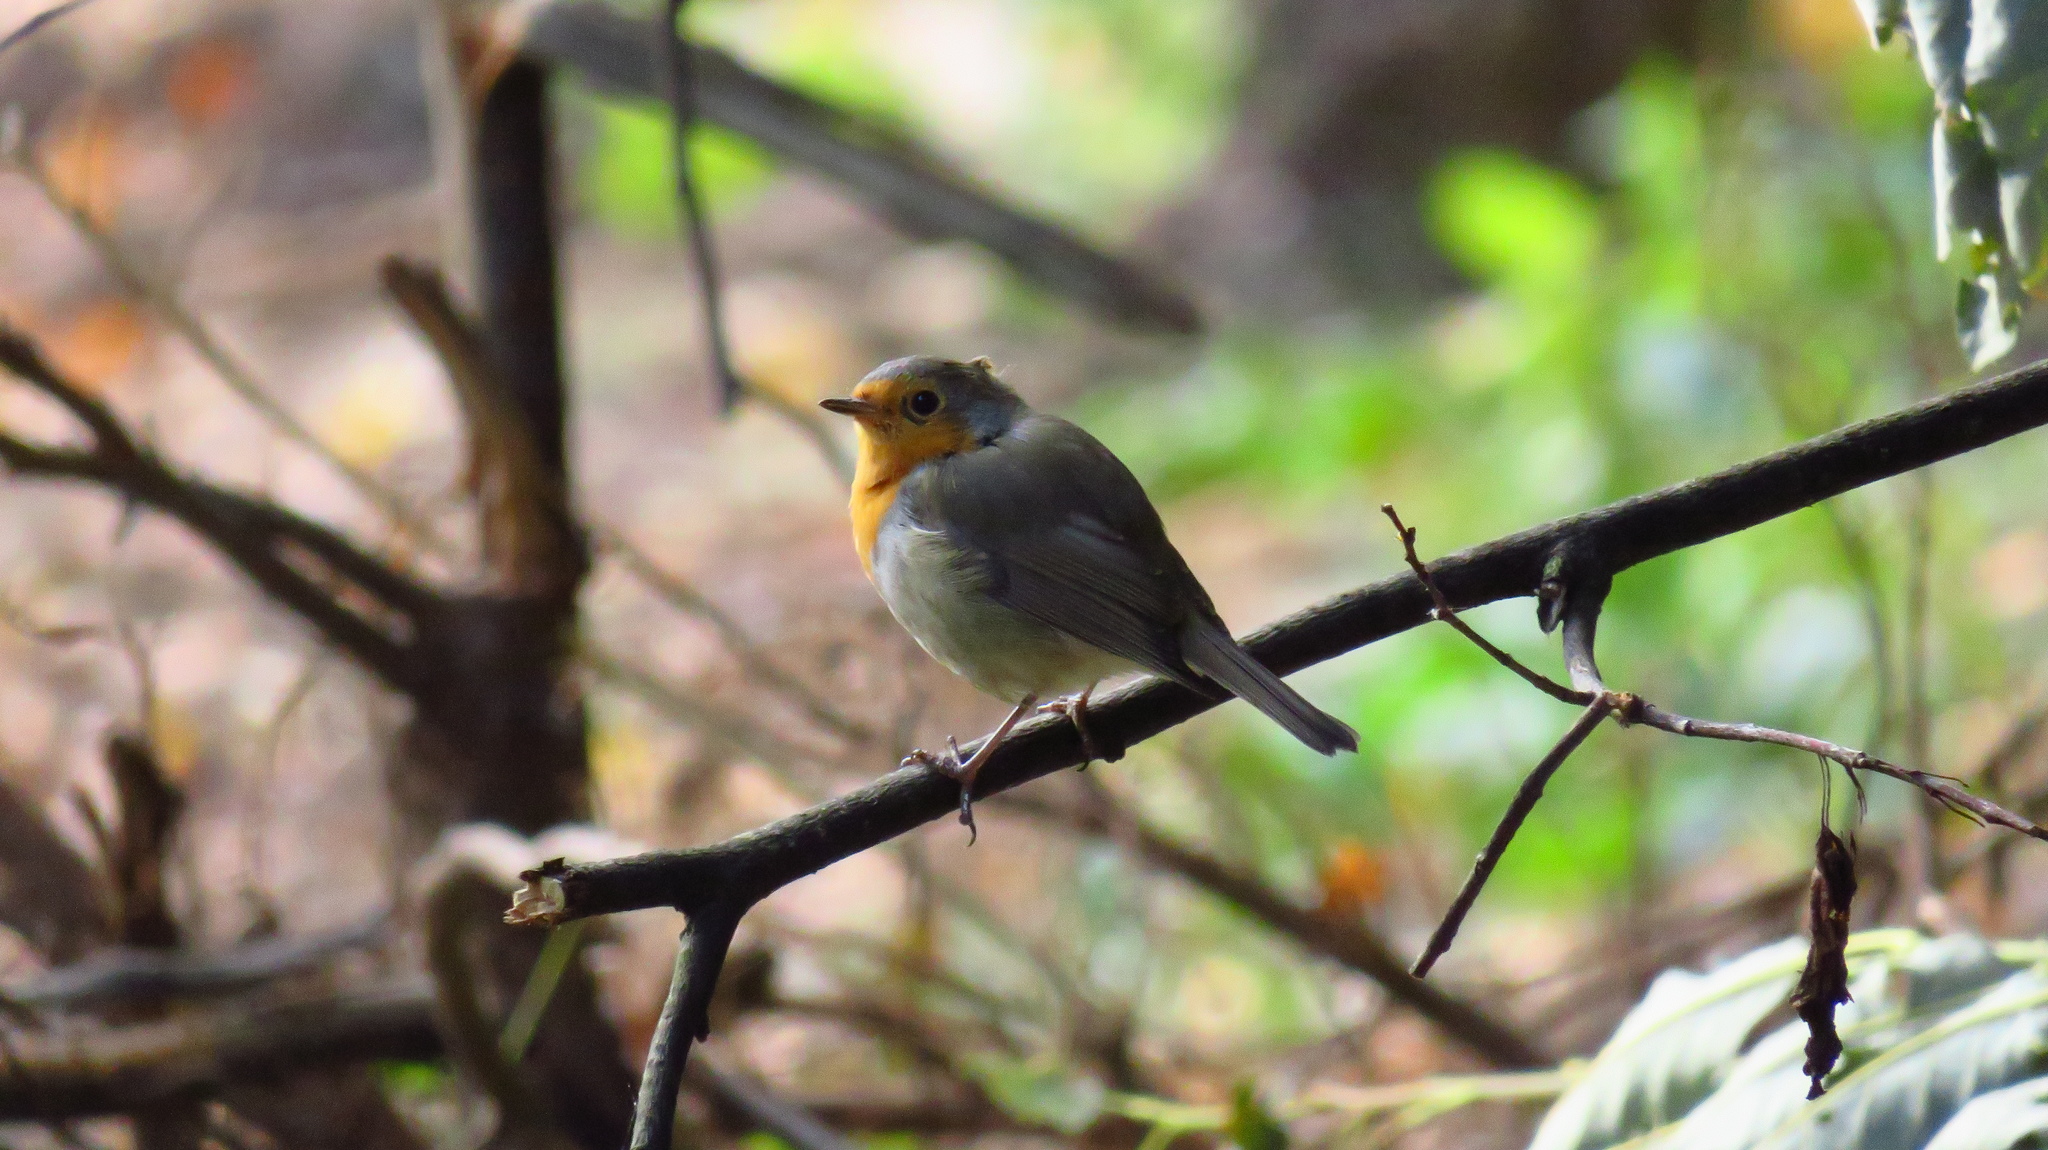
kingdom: Animalia
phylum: Chordata
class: Aves
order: Passeriformes
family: Muscicapidae
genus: Erithacus
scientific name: Erithacus rubecula
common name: European robin
